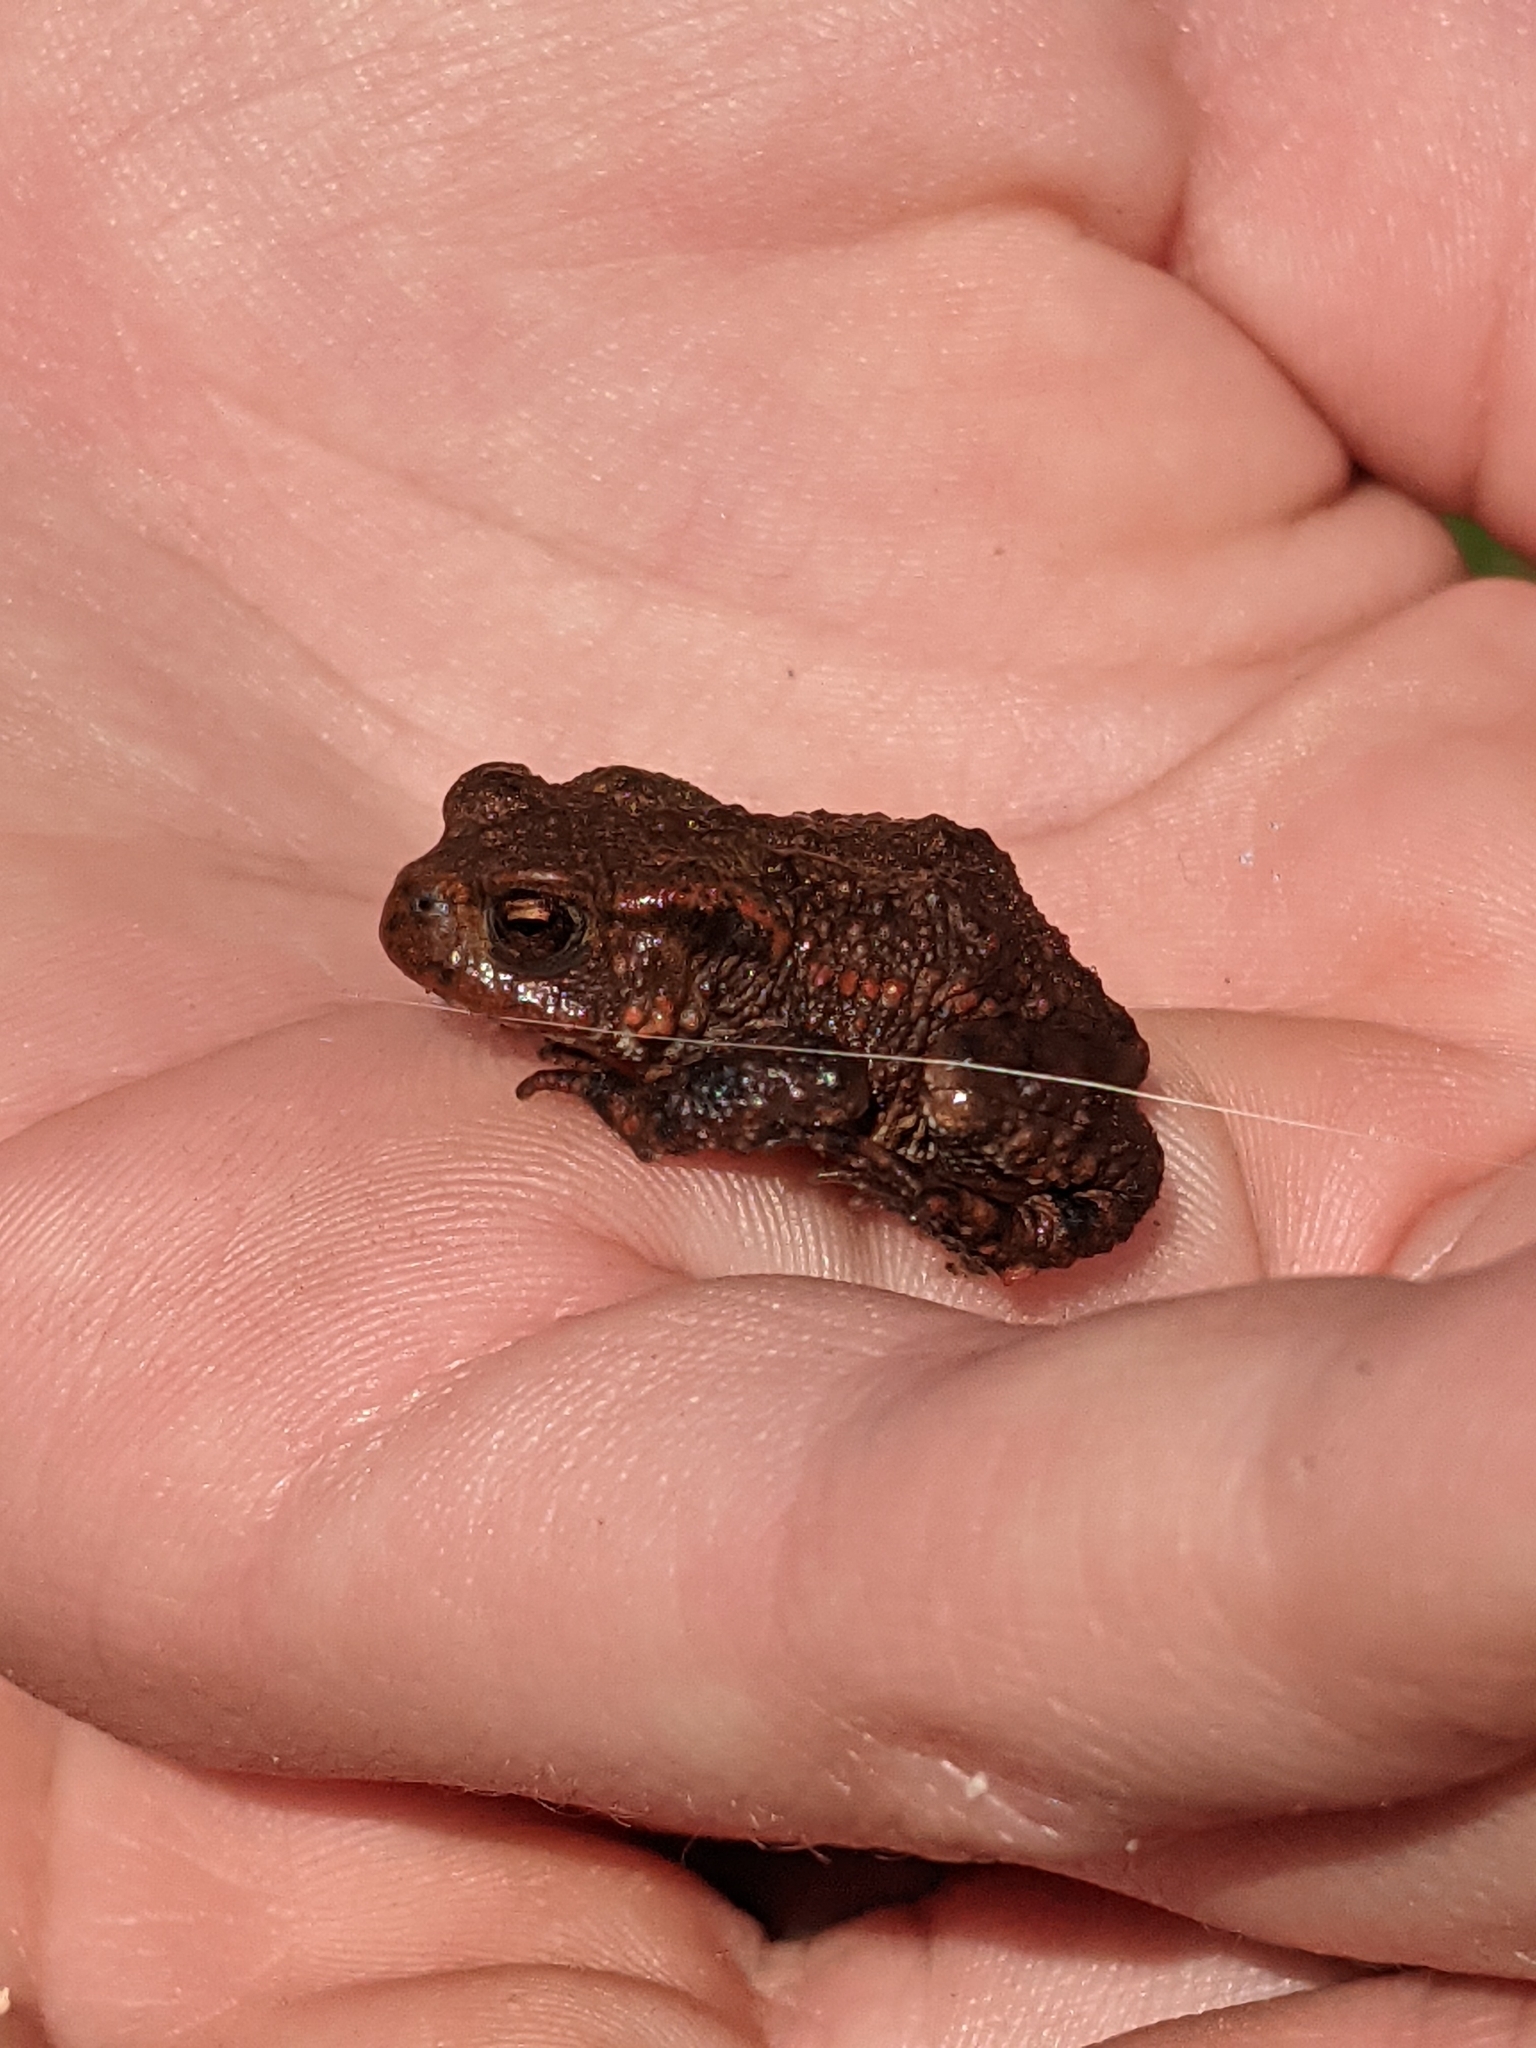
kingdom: Animalia
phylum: Chordata
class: Amphibia
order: Anura
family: Bufonidae
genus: Bufo
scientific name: Bufo bufo
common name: Common toad
